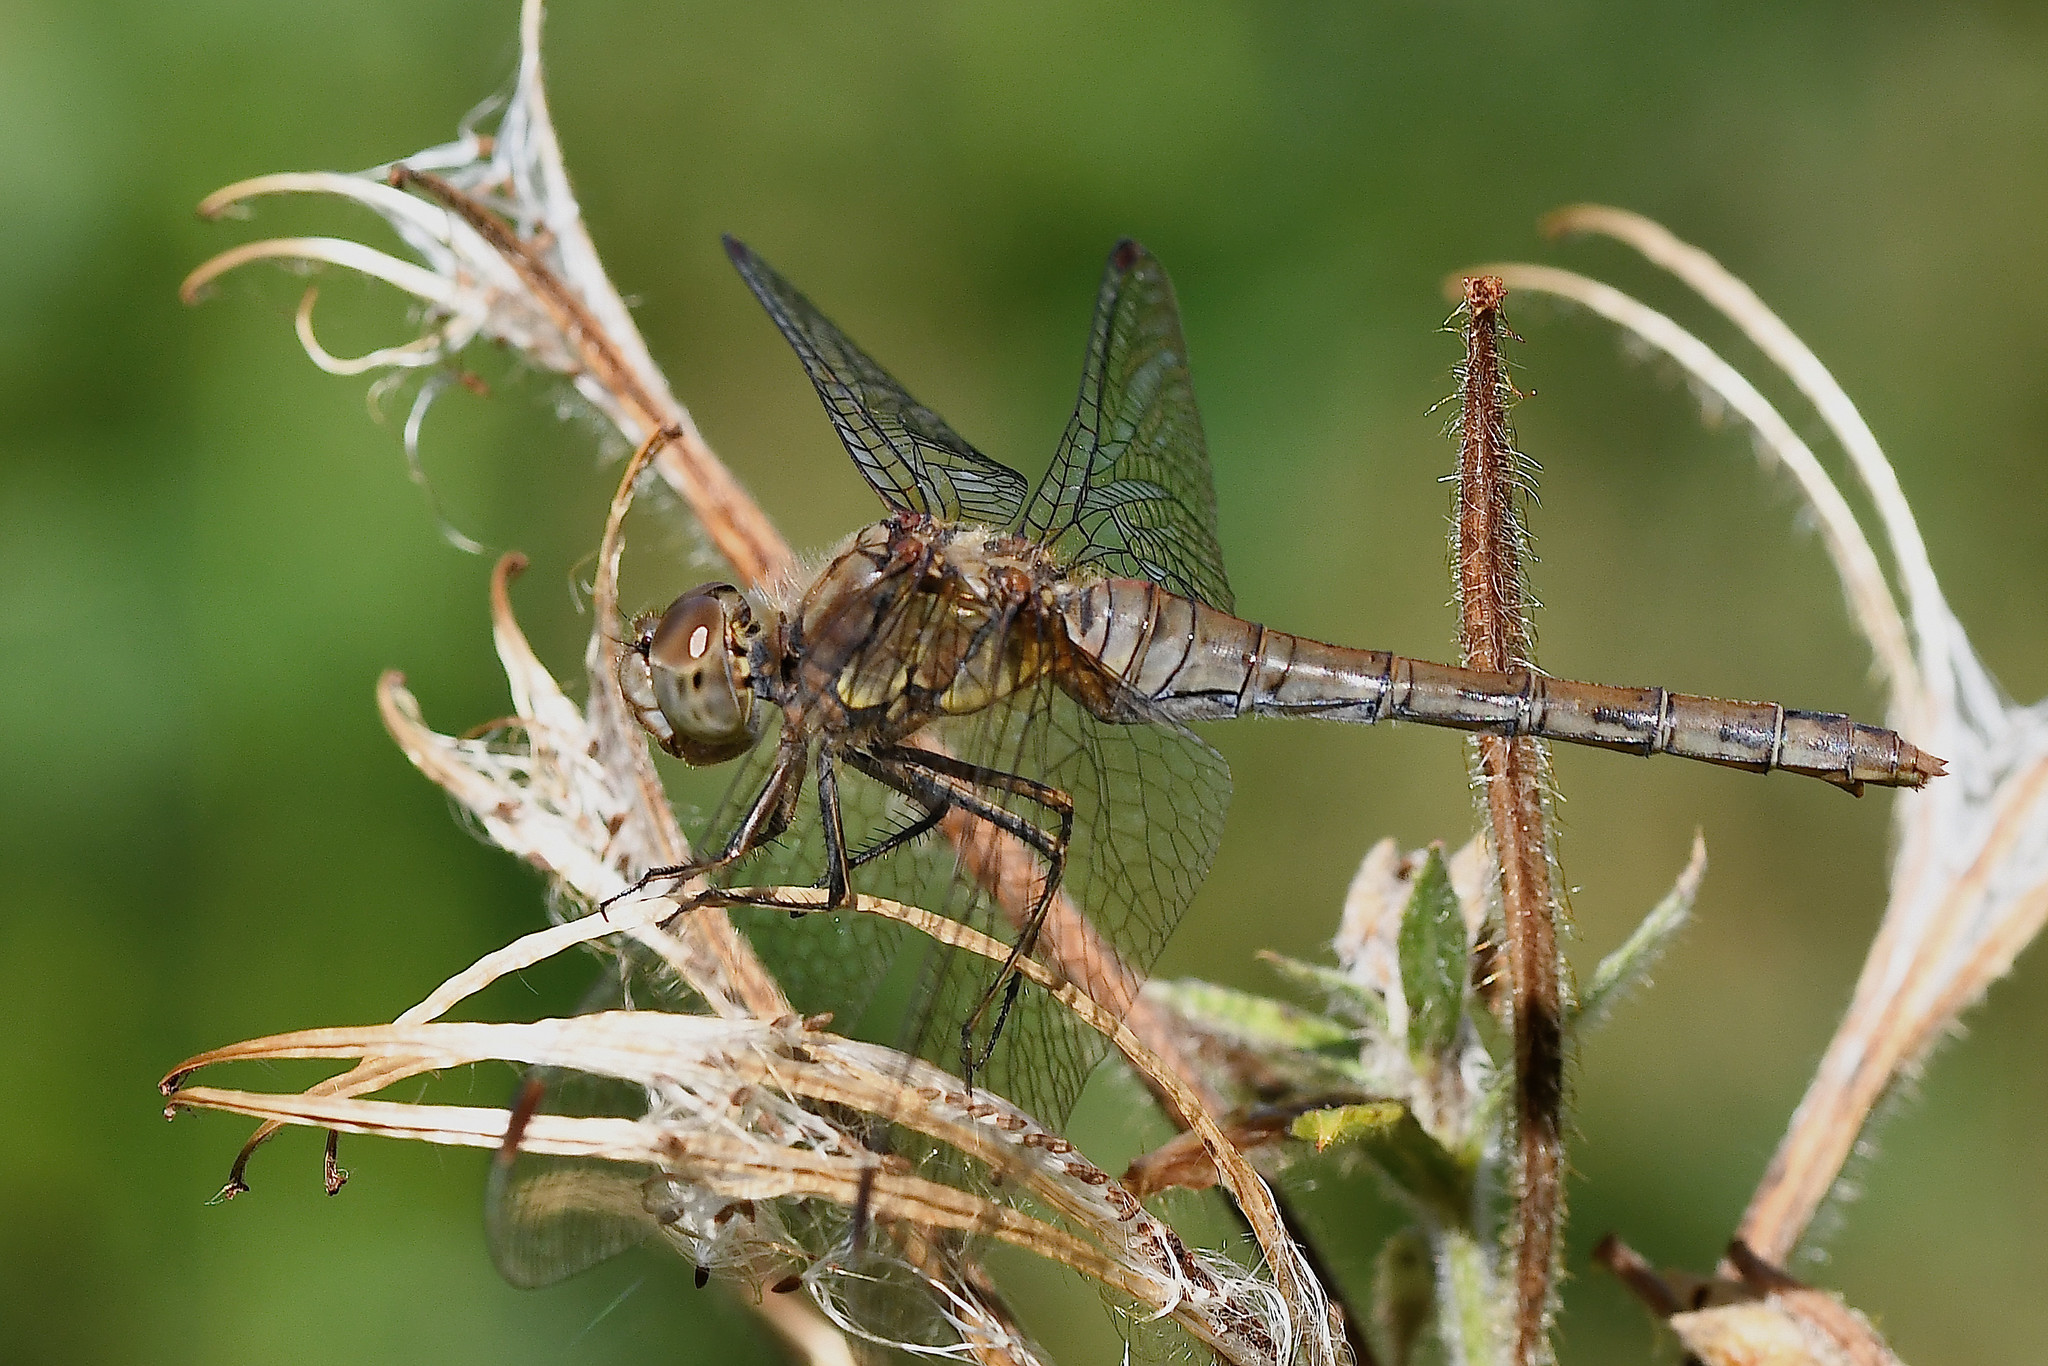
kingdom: Animalia
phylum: Arthropoda
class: Insecta
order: Odonata
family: Libellulidae
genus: Sympetrum
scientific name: Sympetrum striolatum
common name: Common darter
